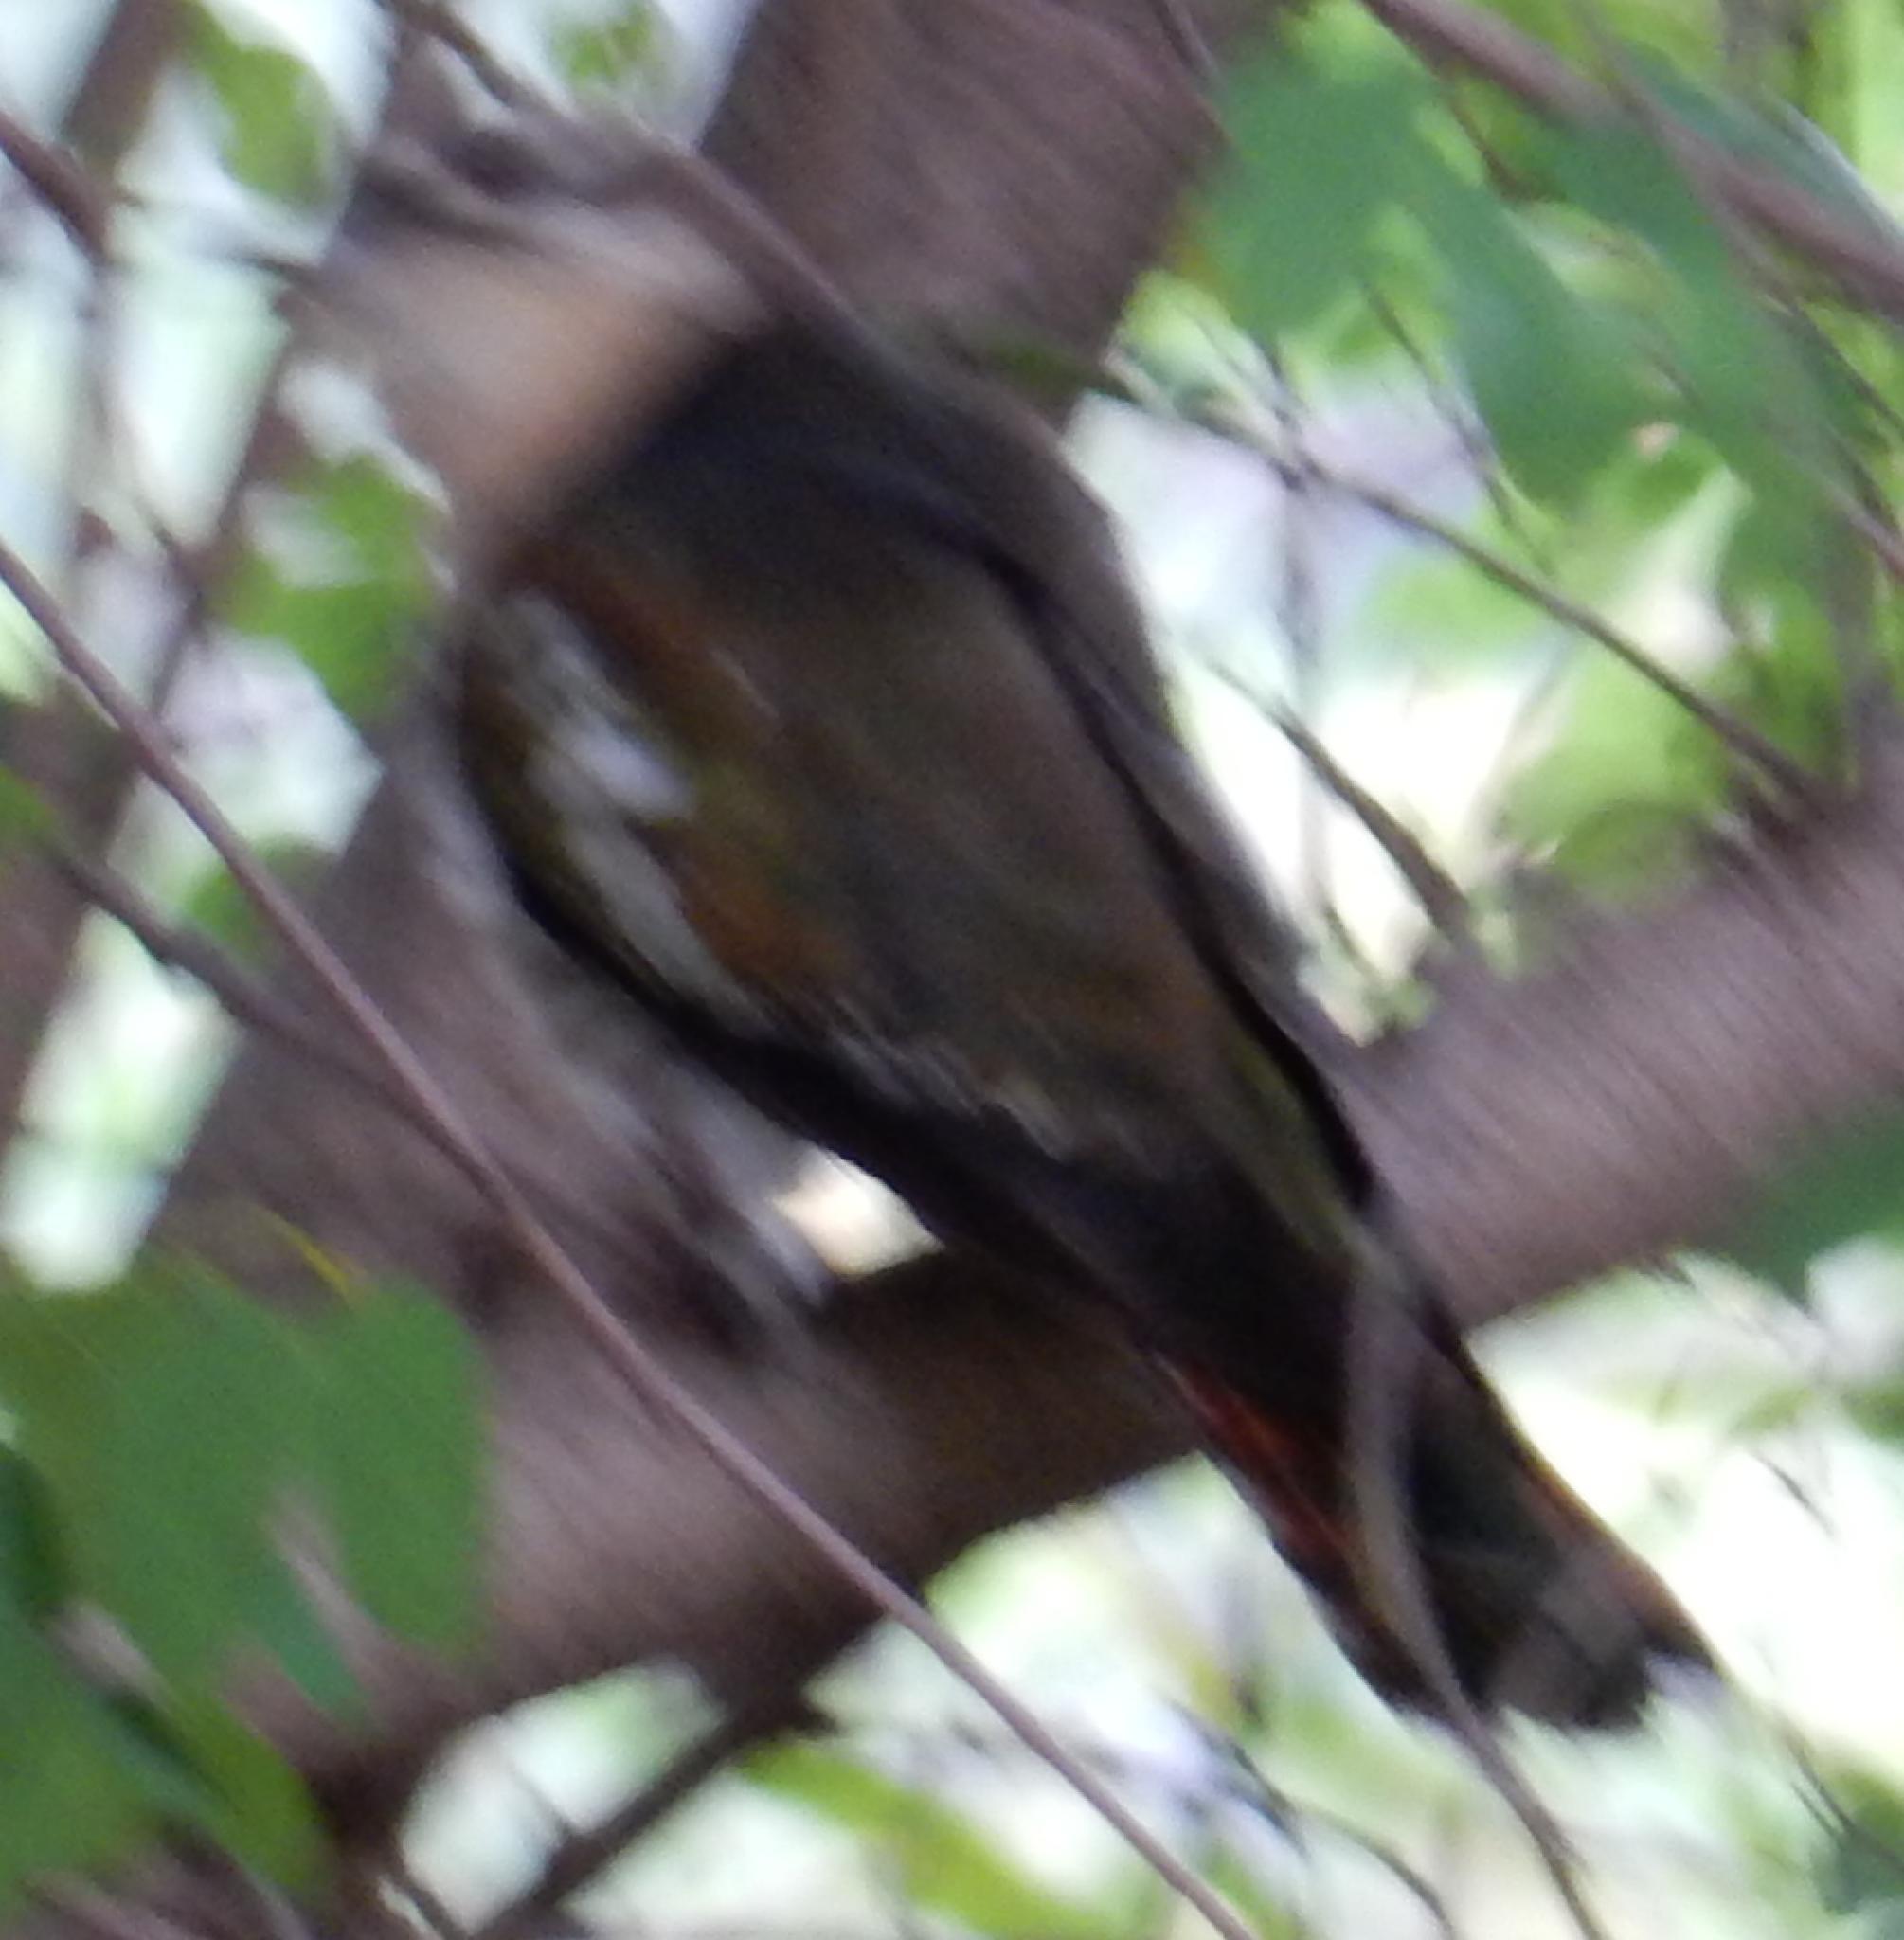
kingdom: Animalia
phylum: Chordata
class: Aves
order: Cuculiformes
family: Cuculidae
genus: Chrysococcyx
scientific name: Chrysococcyx caprius
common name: Diederik cuckoo
